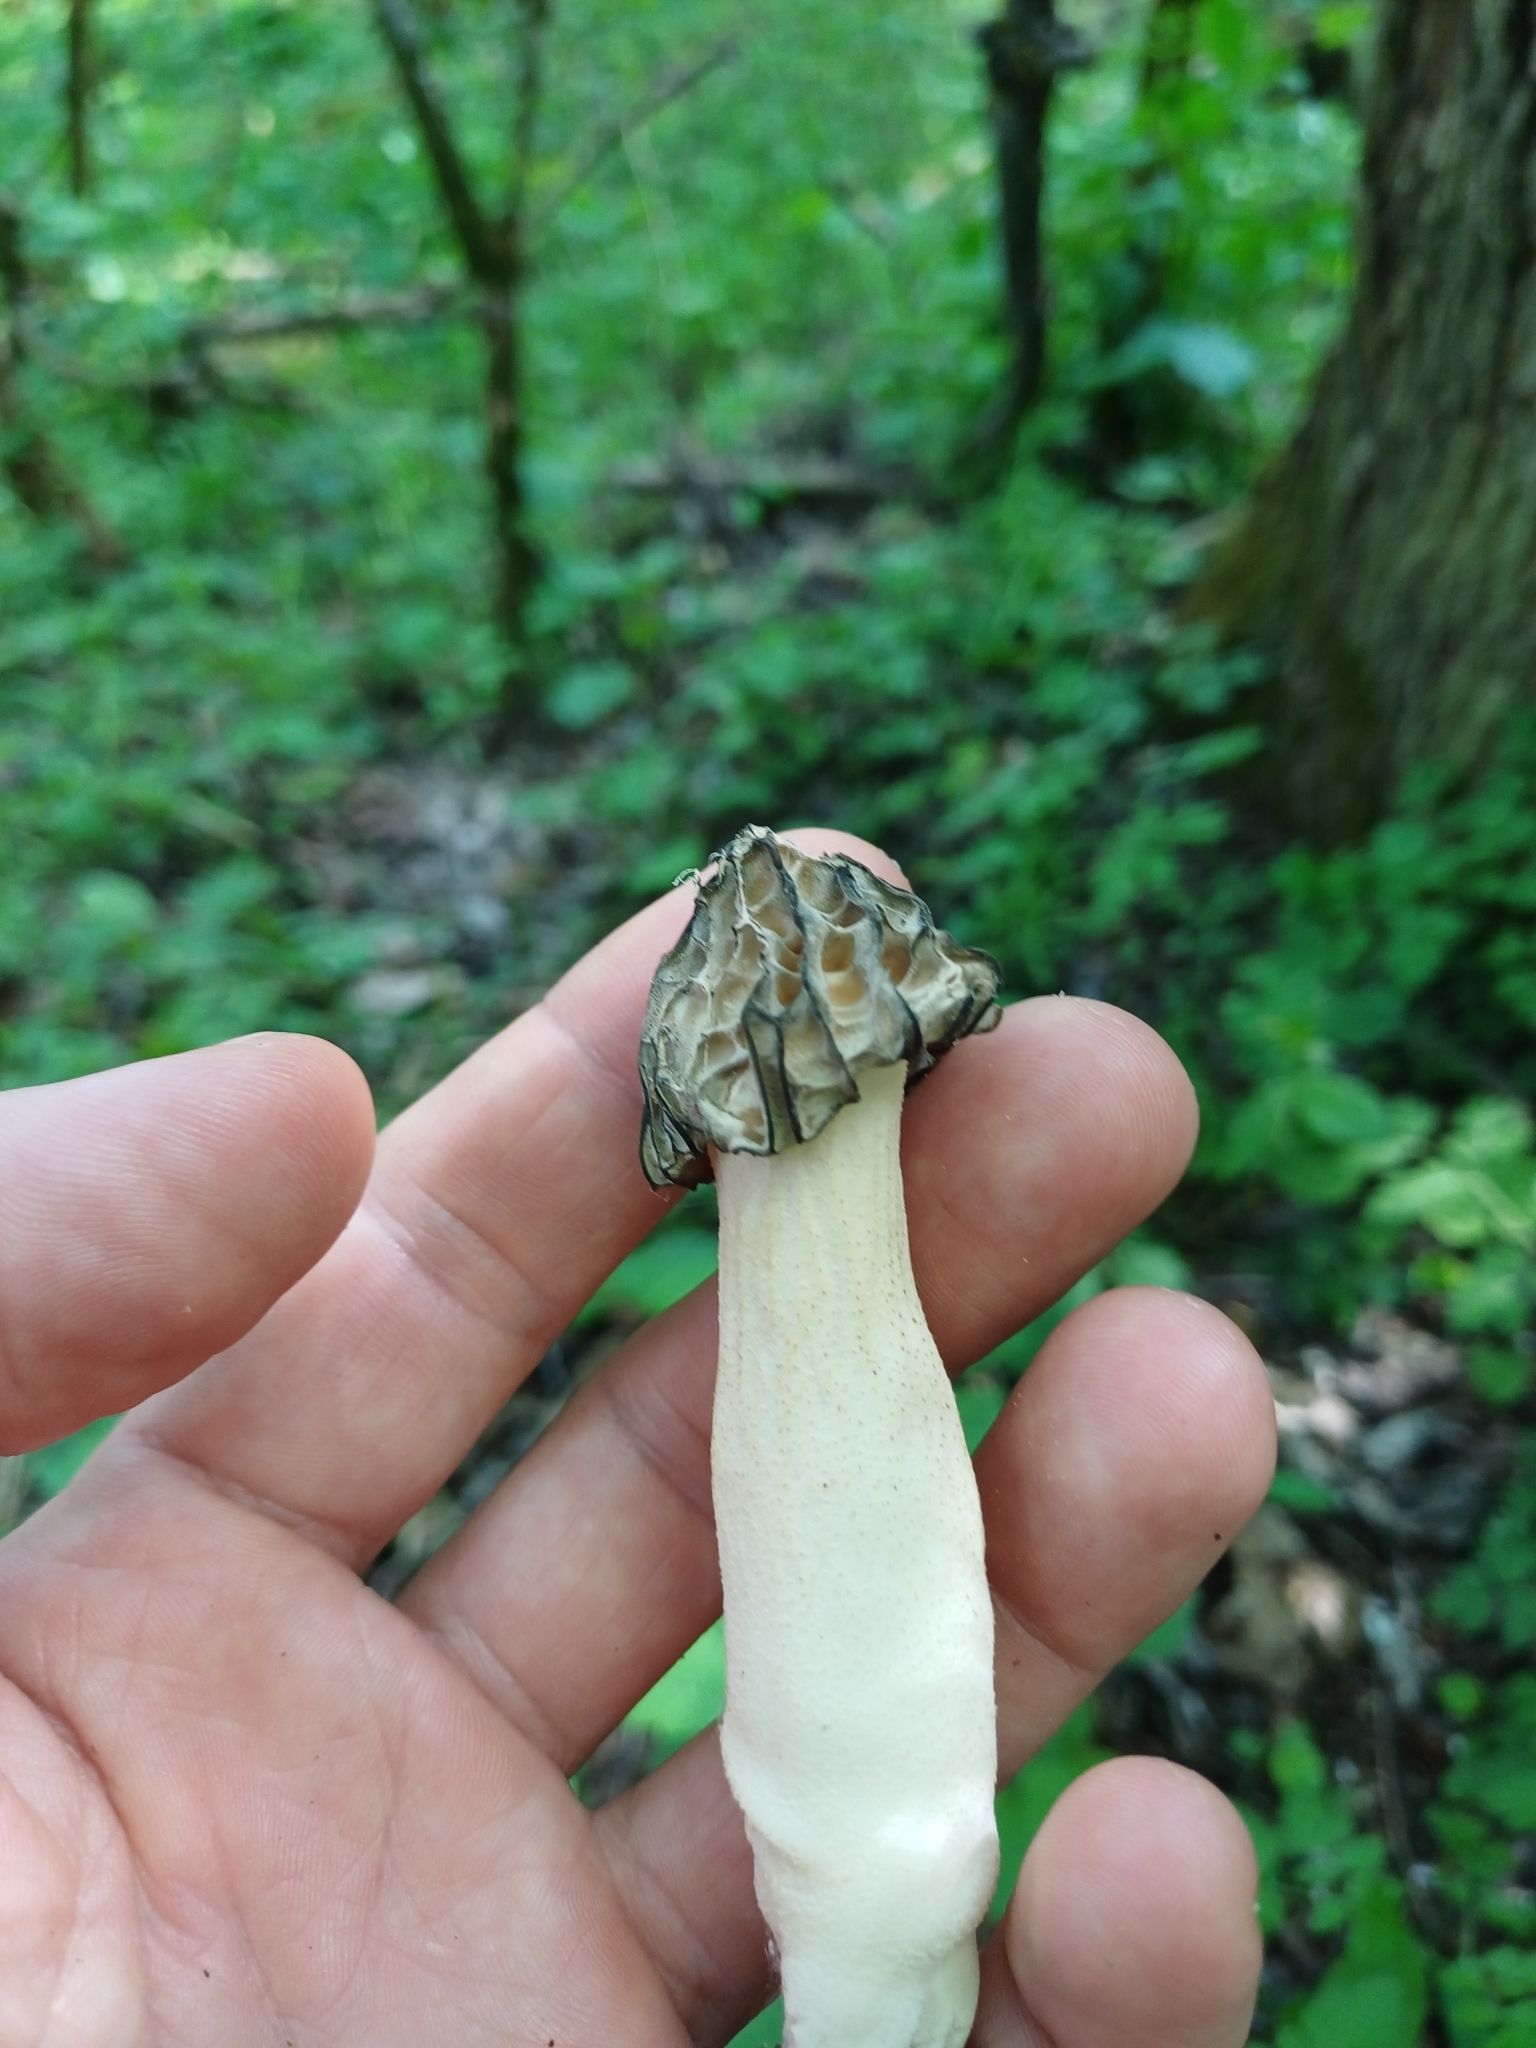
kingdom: Fungi
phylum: Ascomycota
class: Pezizomycetes
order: Pezizales
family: Morchellaceae
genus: Morchella
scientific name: Morchella semilibera
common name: Semifree morel
